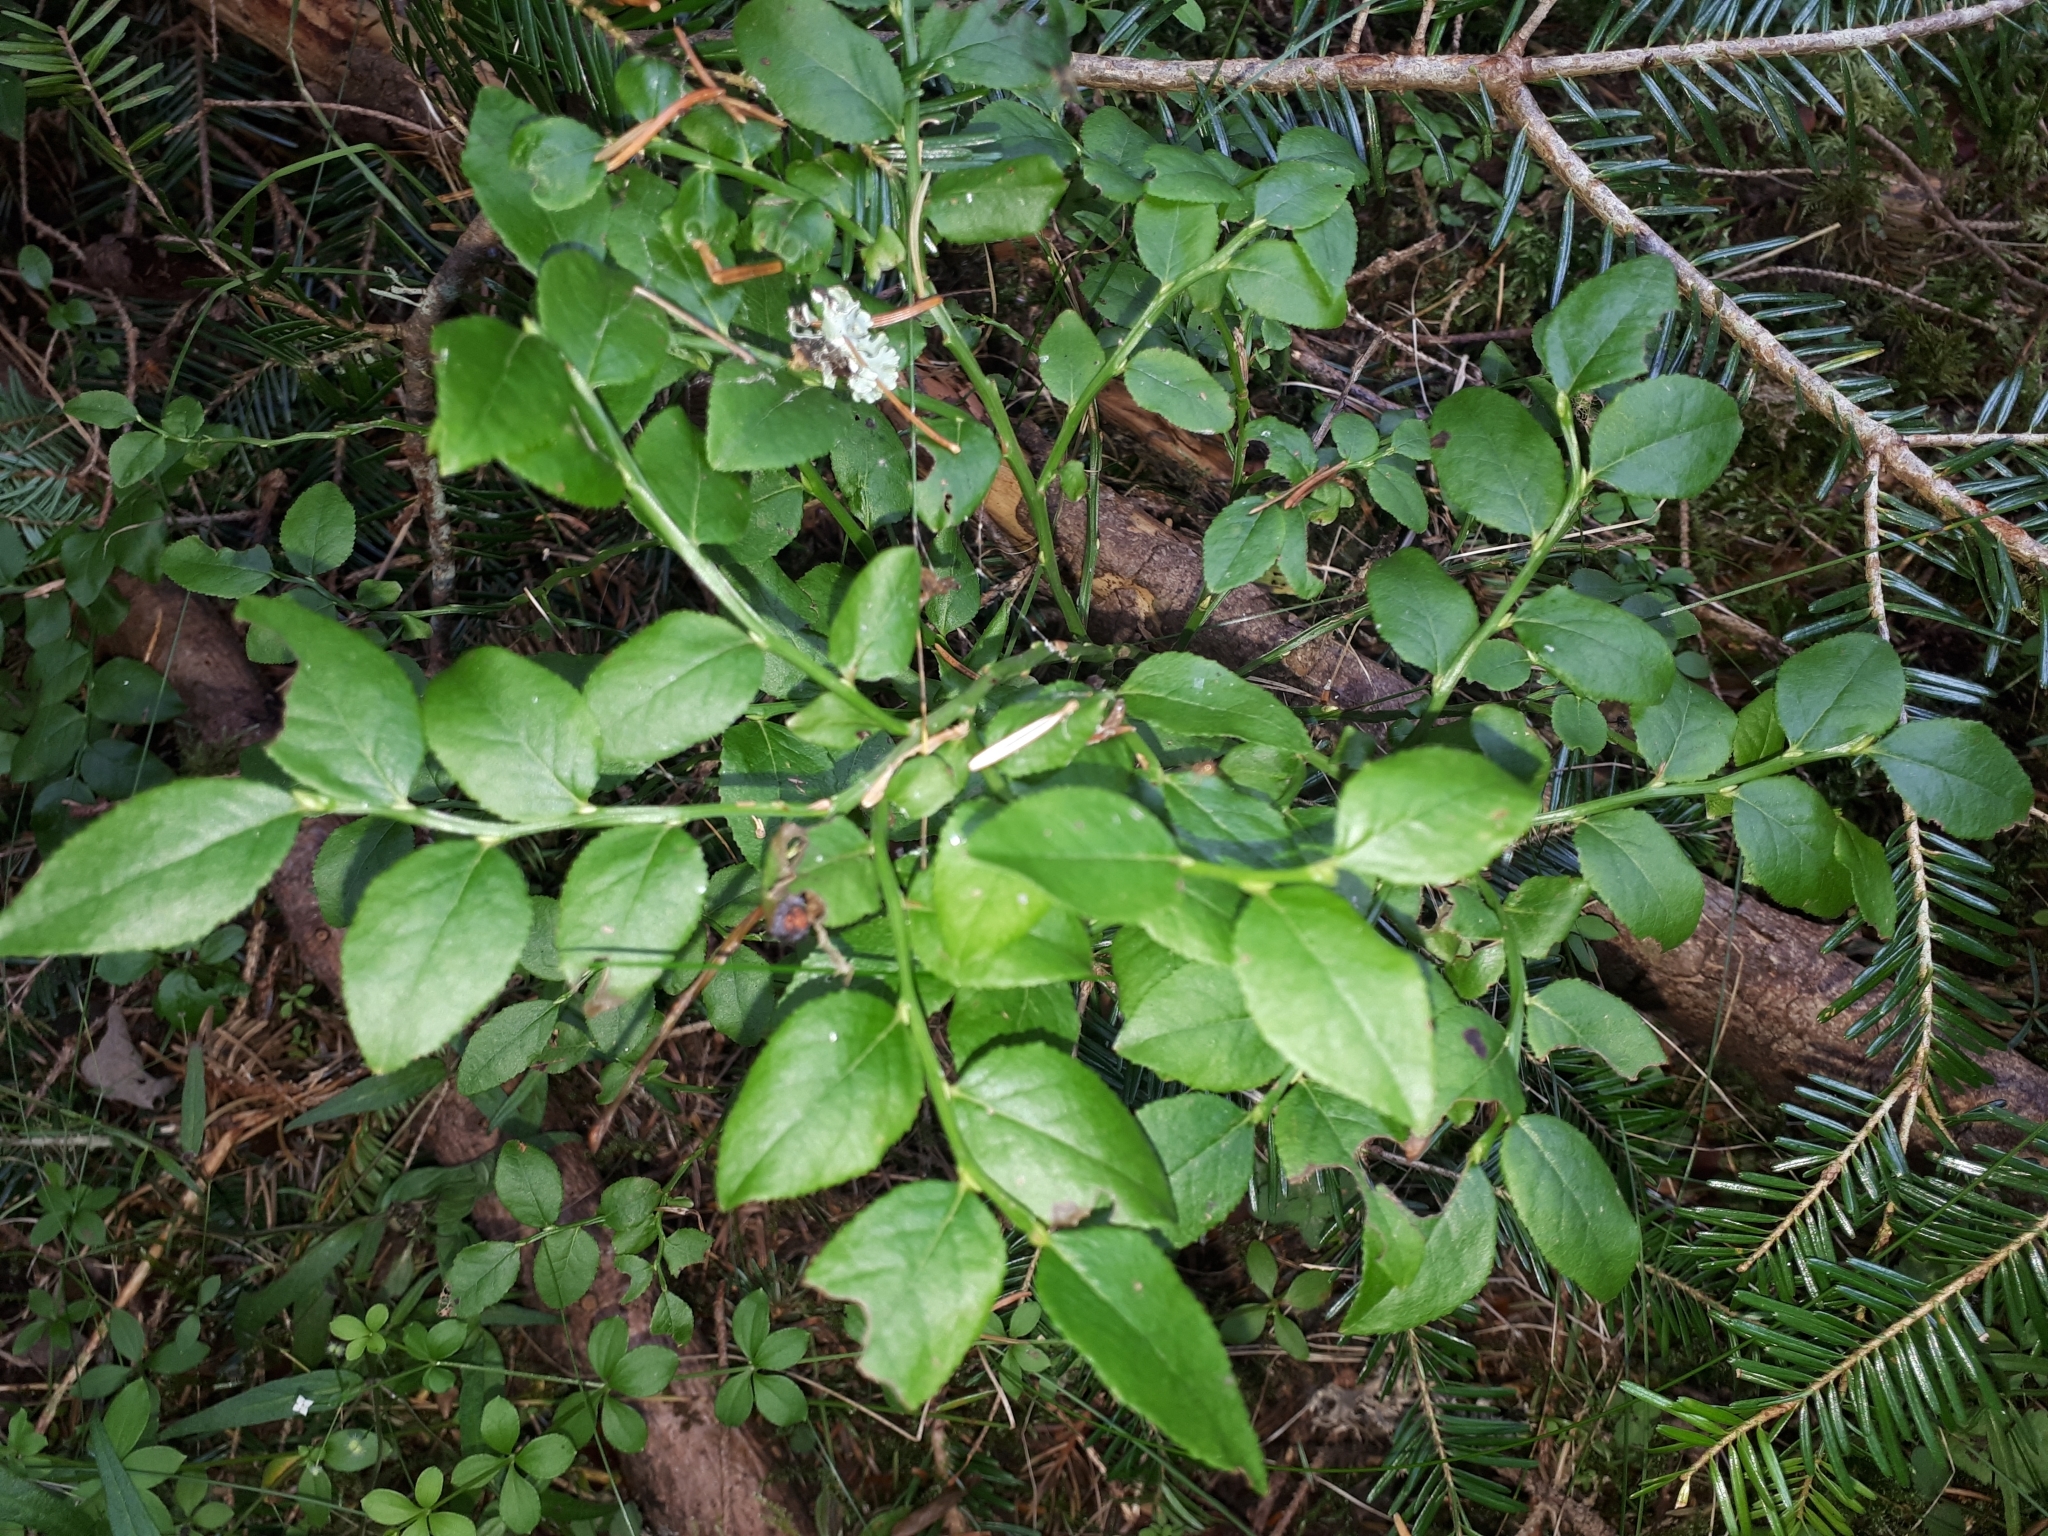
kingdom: Plantae
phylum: Tracheophyta
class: Magnoliopsida
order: Ericales
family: Ericaceae
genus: Vaccinium
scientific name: Vaccinium myrtillus
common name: Bilberry
